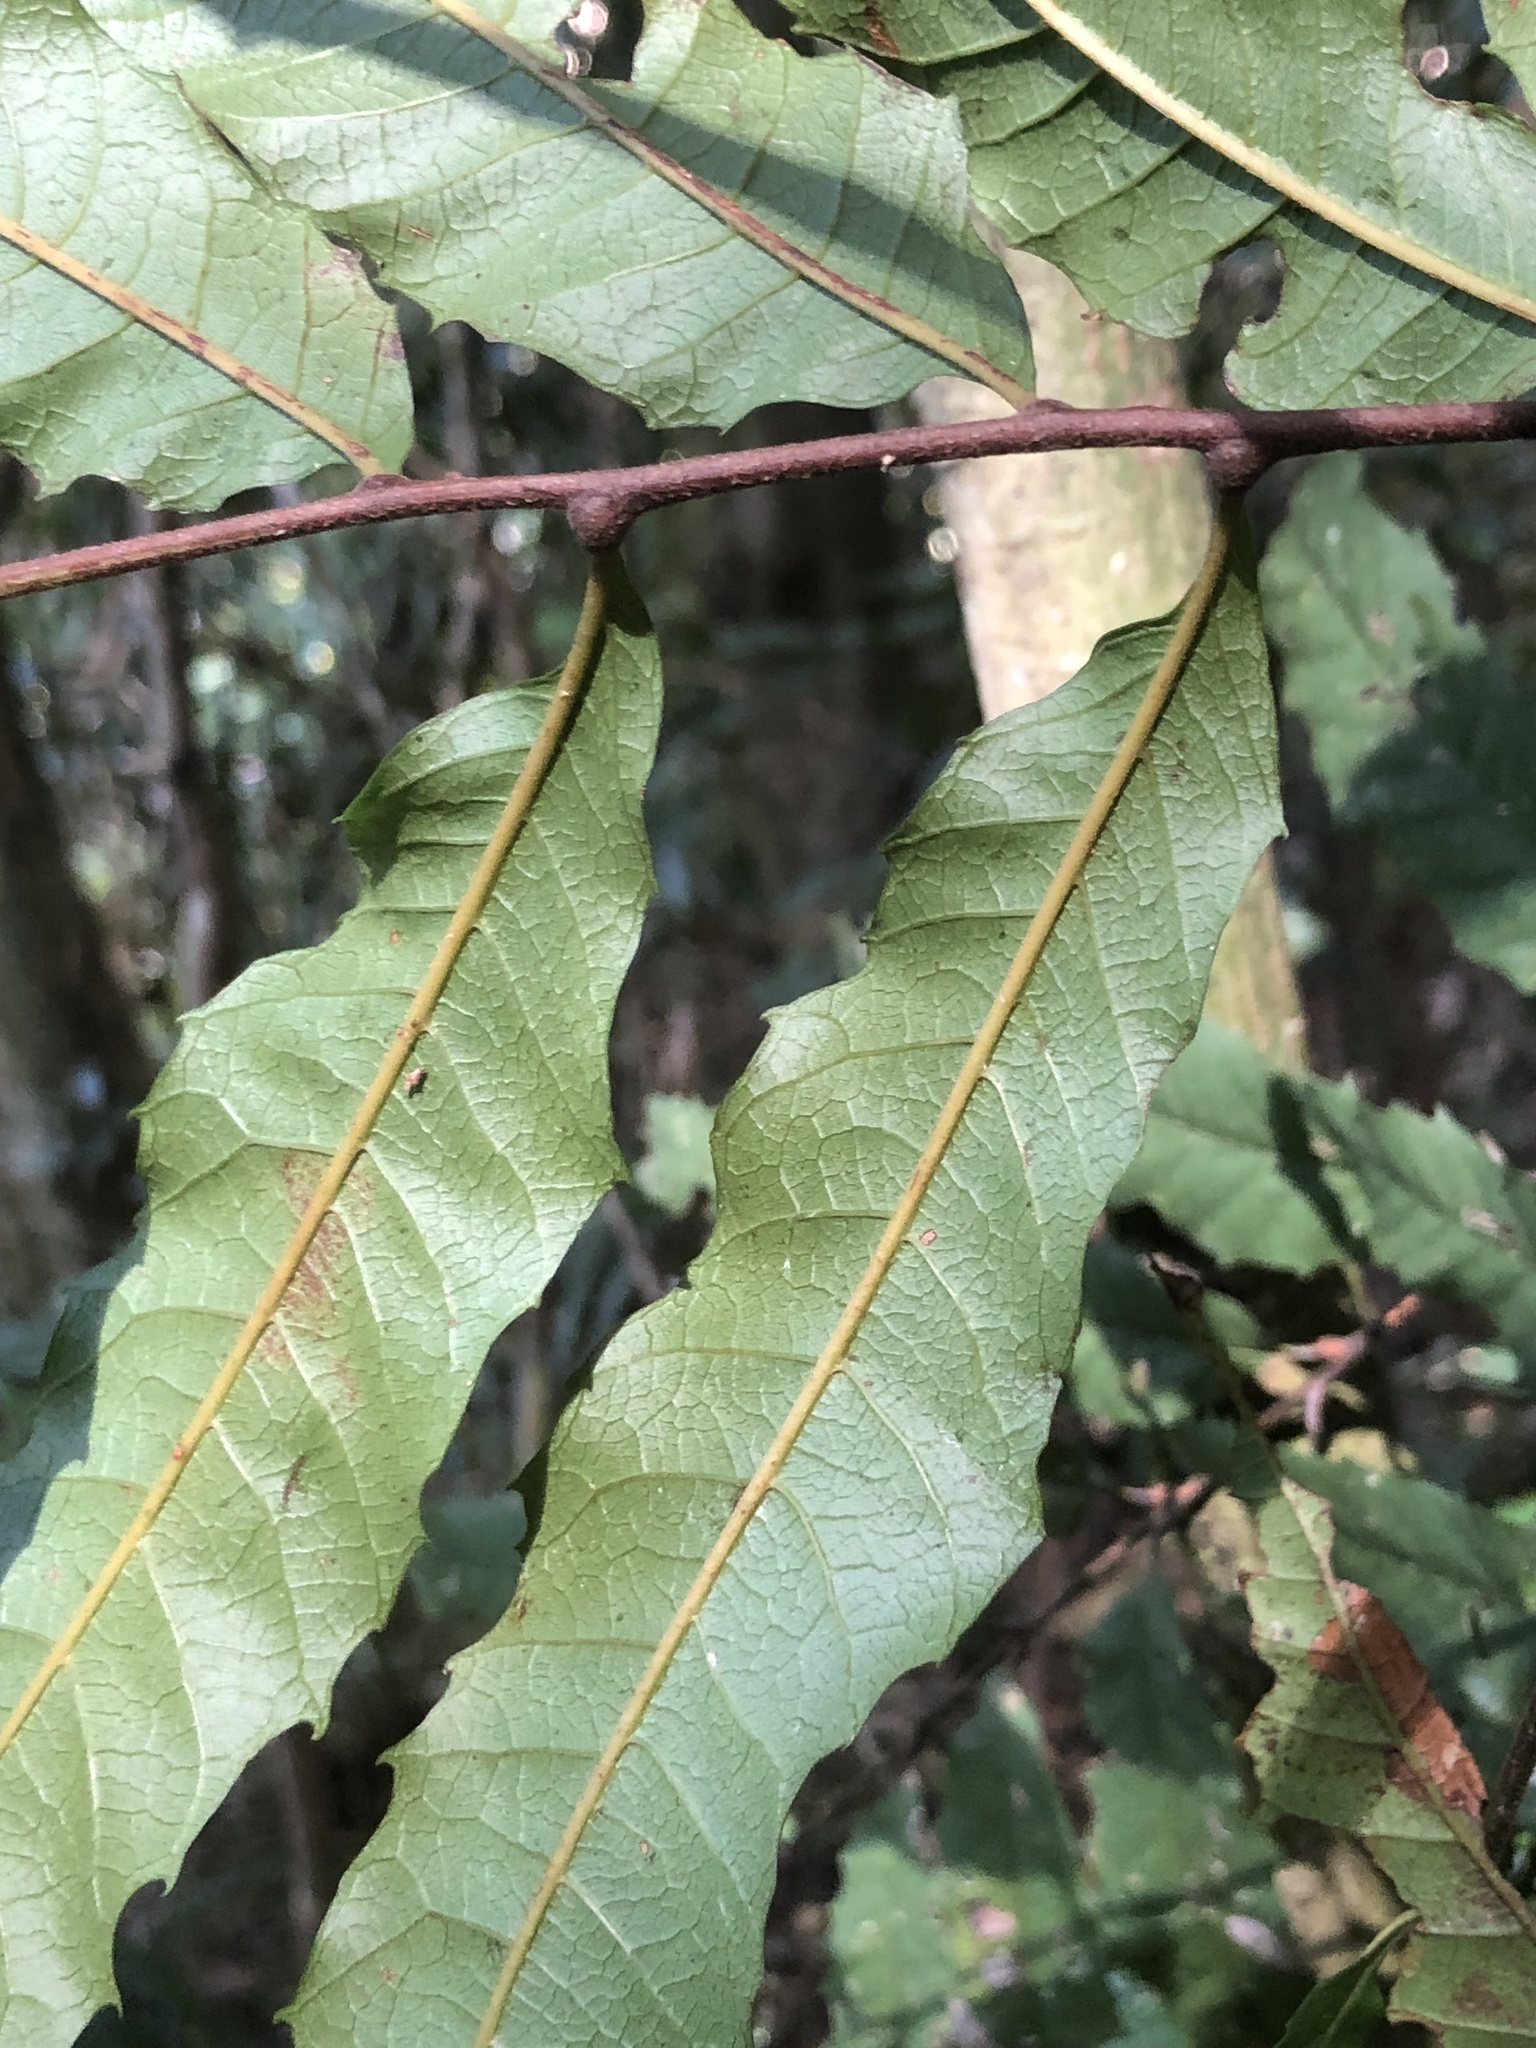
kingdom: Plantae
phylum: Tracheophyta
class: Magnoliopsida
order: Sapindales
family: Sapindaceae
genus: Cupaniopsis
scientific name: Cupaniopsis newmanii
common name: Long-leaved tuckeroo
